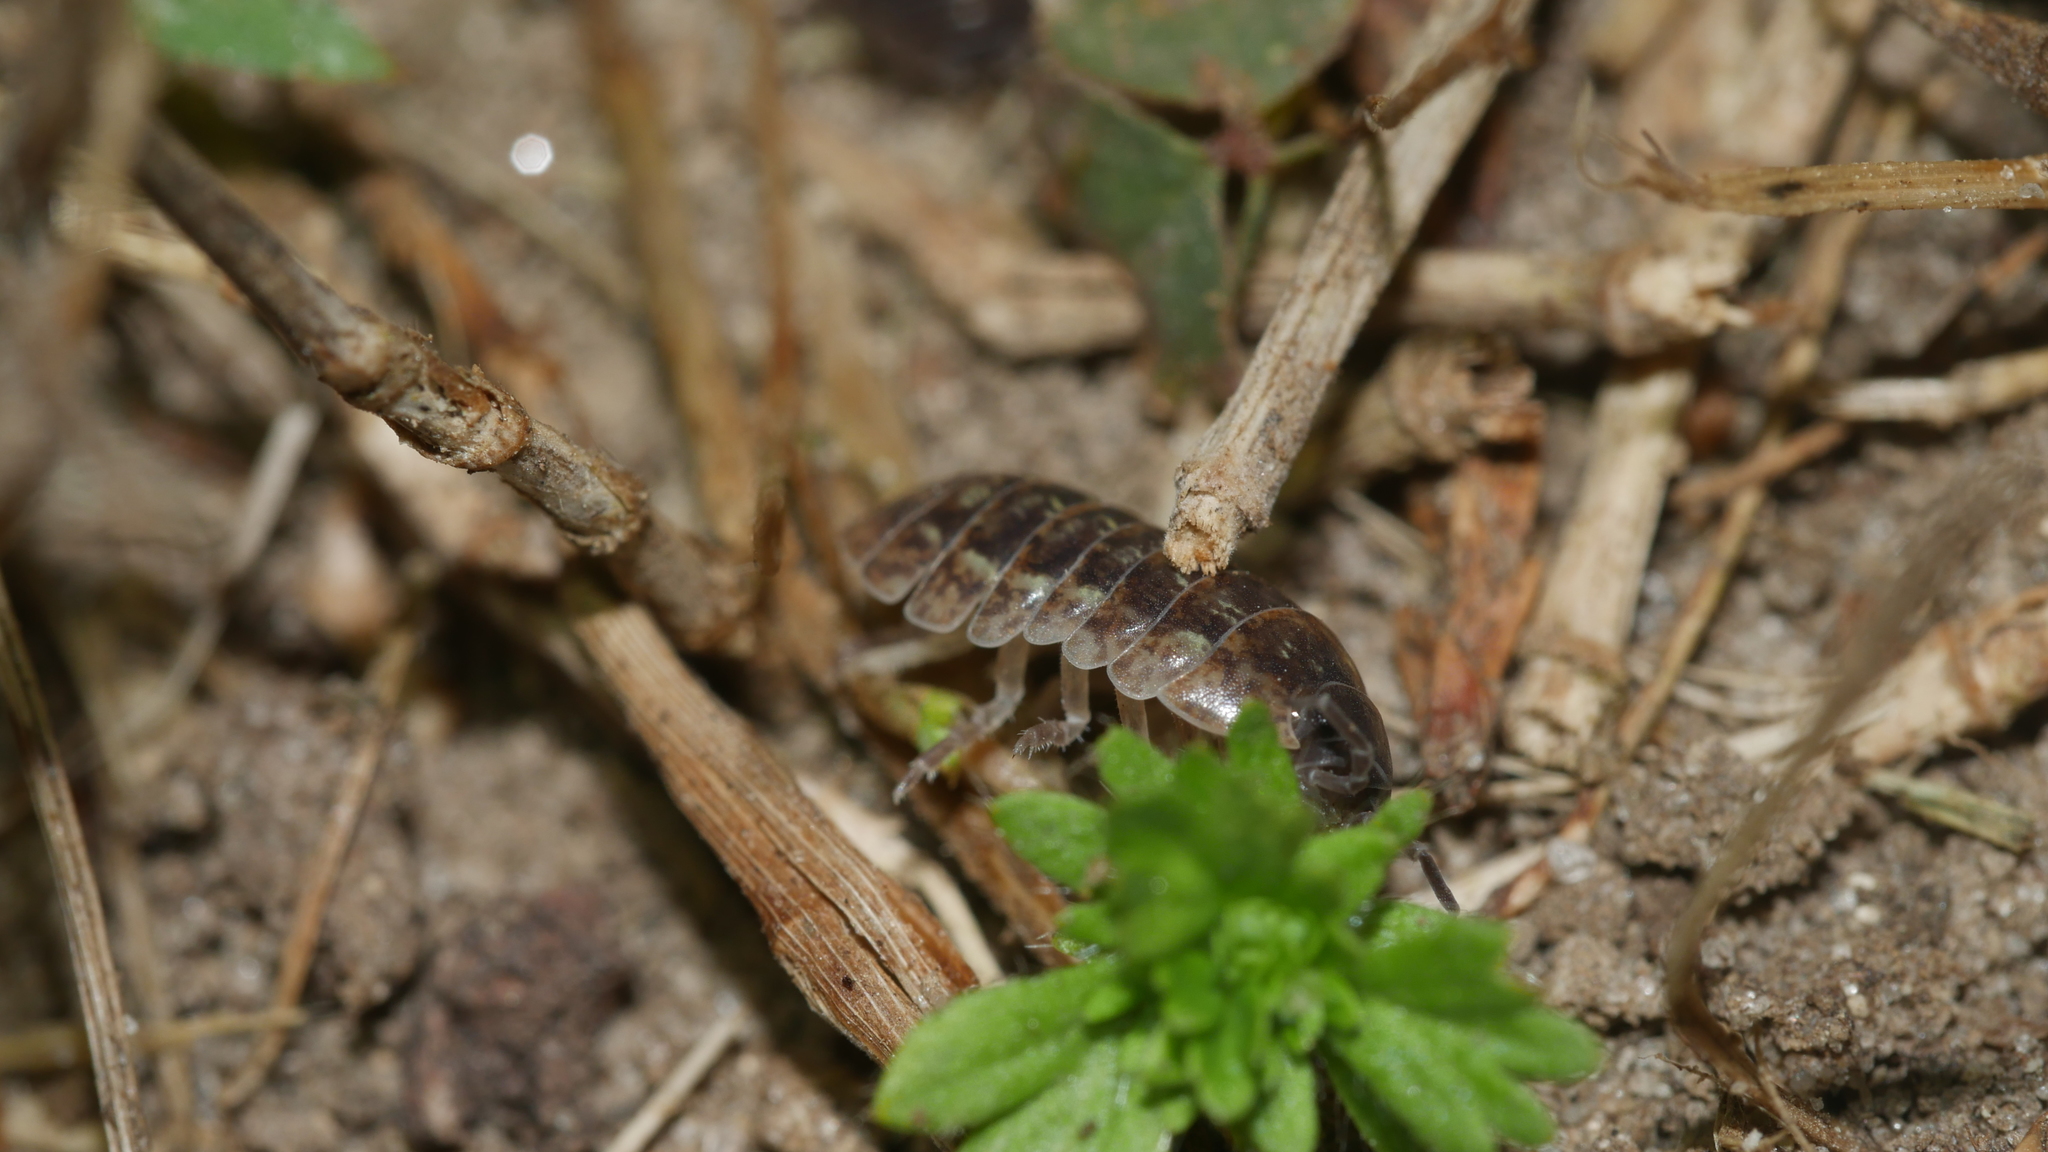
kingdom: Animalia
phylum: Arthropoda
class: Malacostraca
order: Isopoda
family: Armadillidiidae
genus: Armadillidium
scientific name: Armadillidium vulgare
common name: Common pill woodlouse
